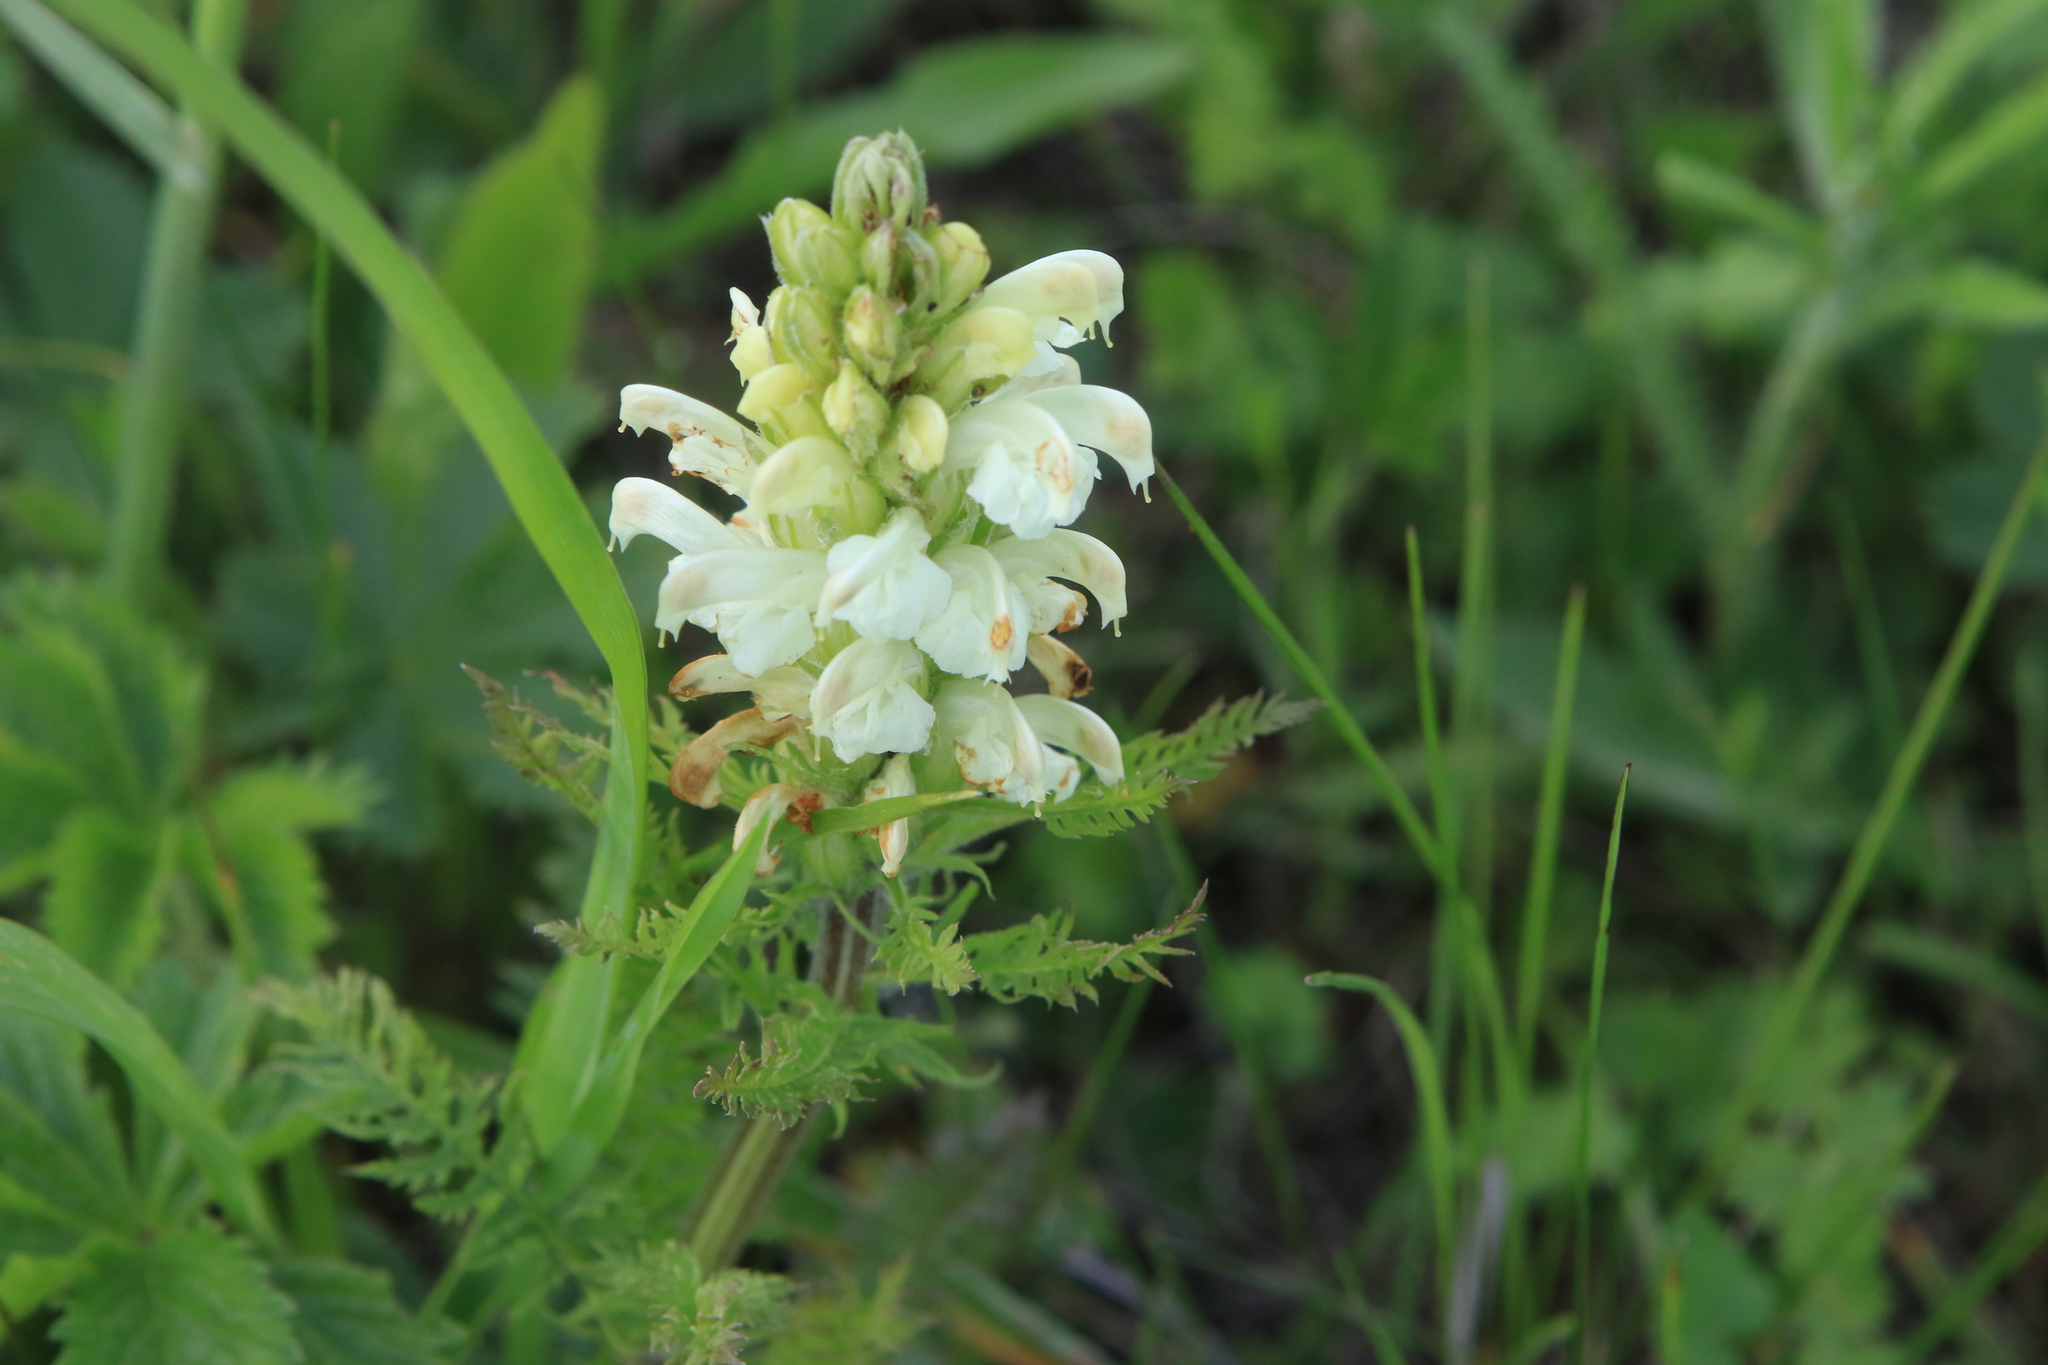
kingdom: Plantae
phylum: Tracheophyta
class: Magnoliopsida
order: Lamiales
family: Orobanchaceae
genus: Pedicularis
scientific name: Pedicularis sibirica
